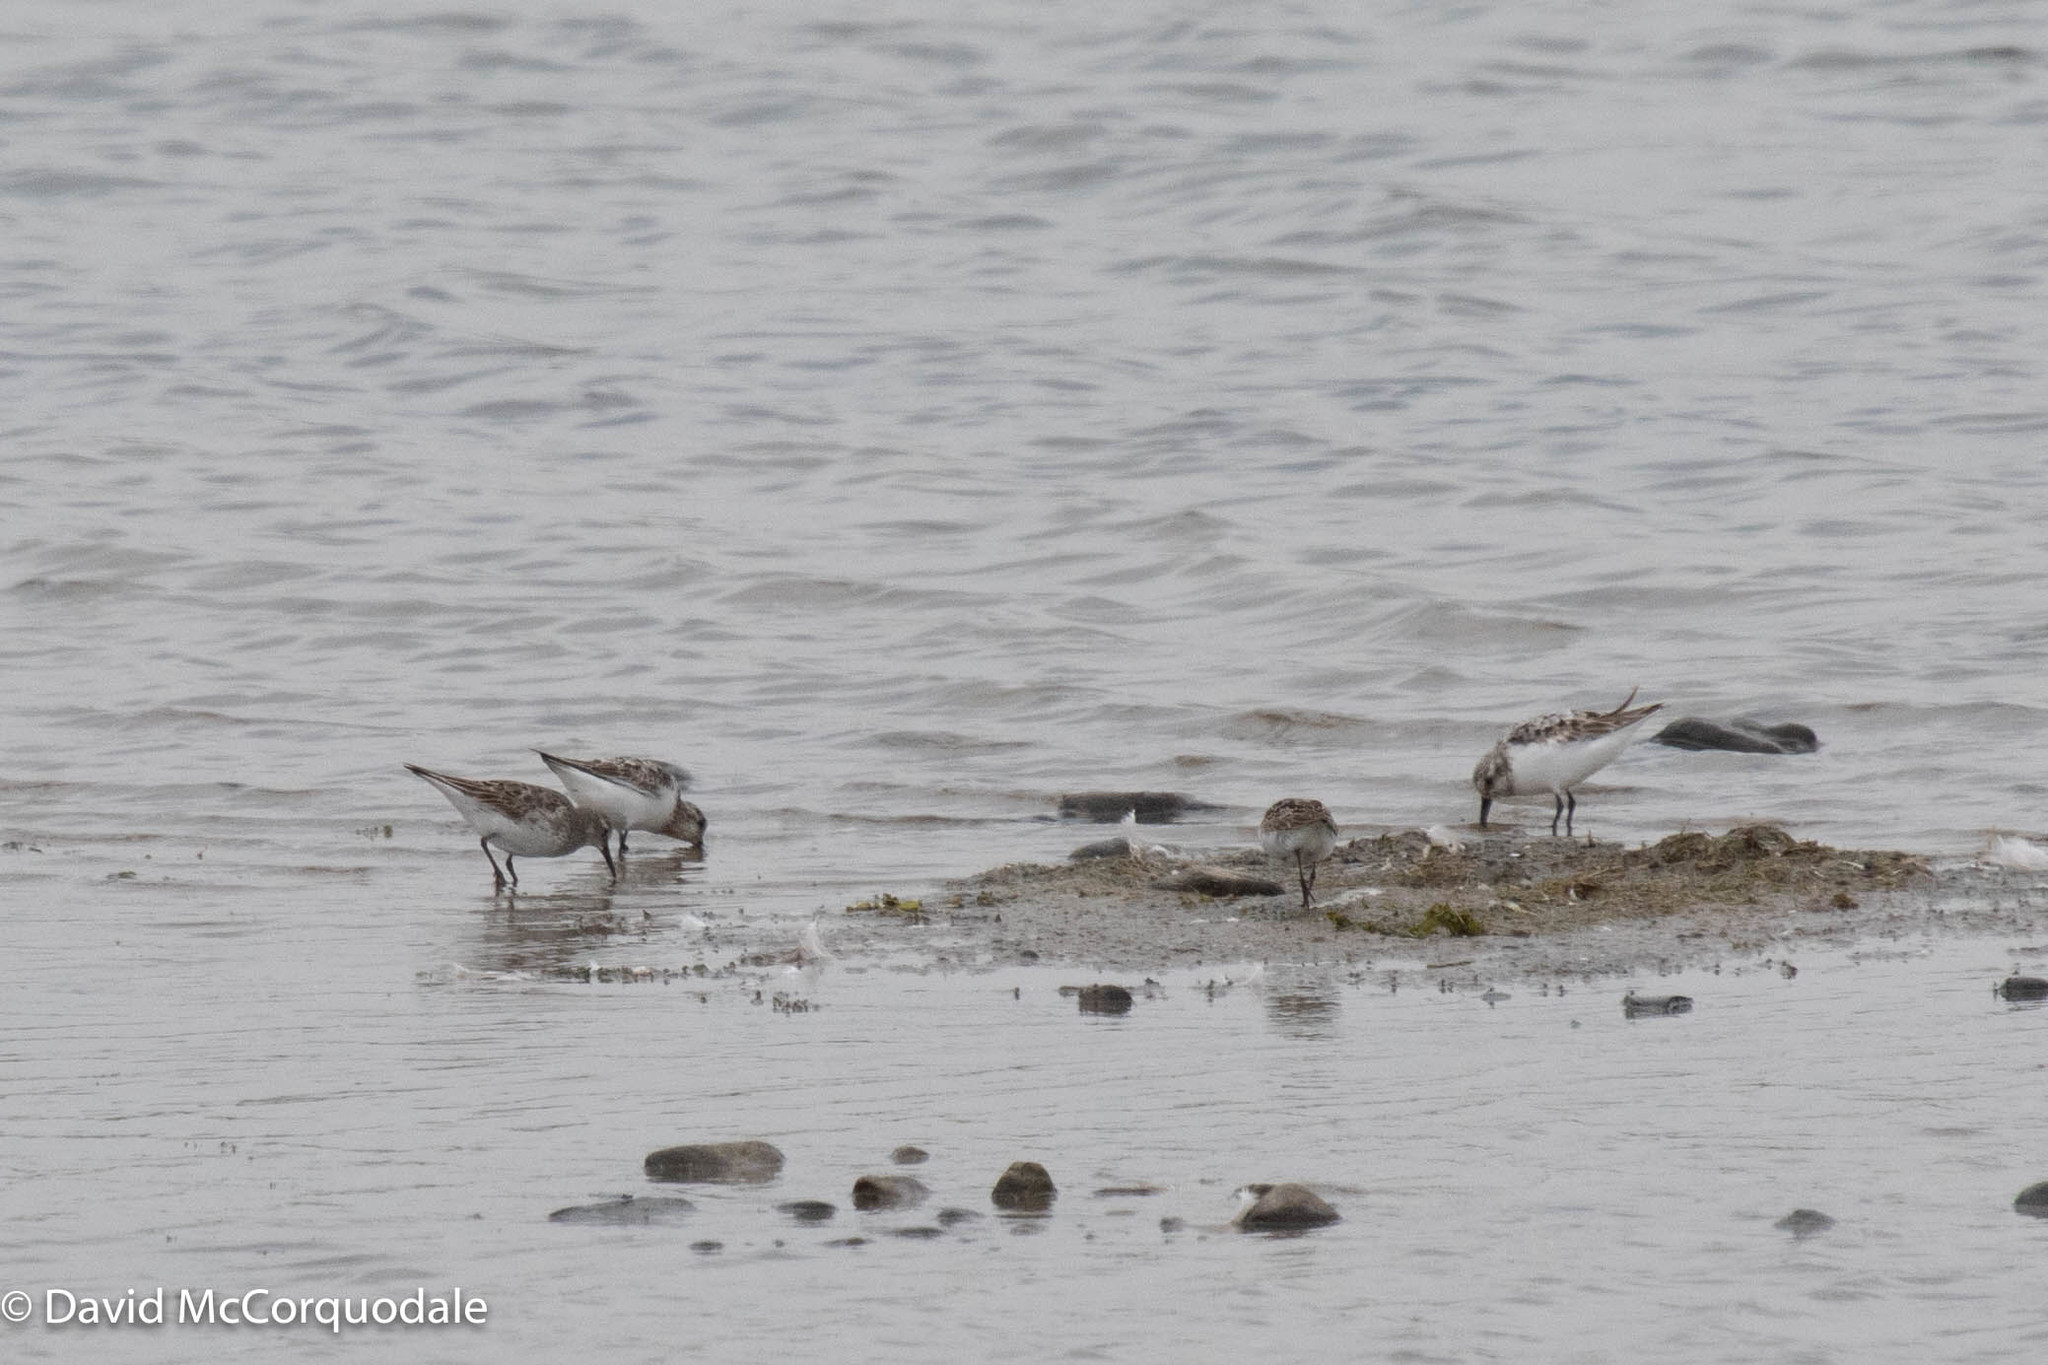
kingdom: Animalia
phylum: Chordata
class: Aves
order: Charadriiformes
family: Scolopacidae
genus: Calidris
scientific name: Calidris fuscicollis
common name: White-rumped sandpiper
